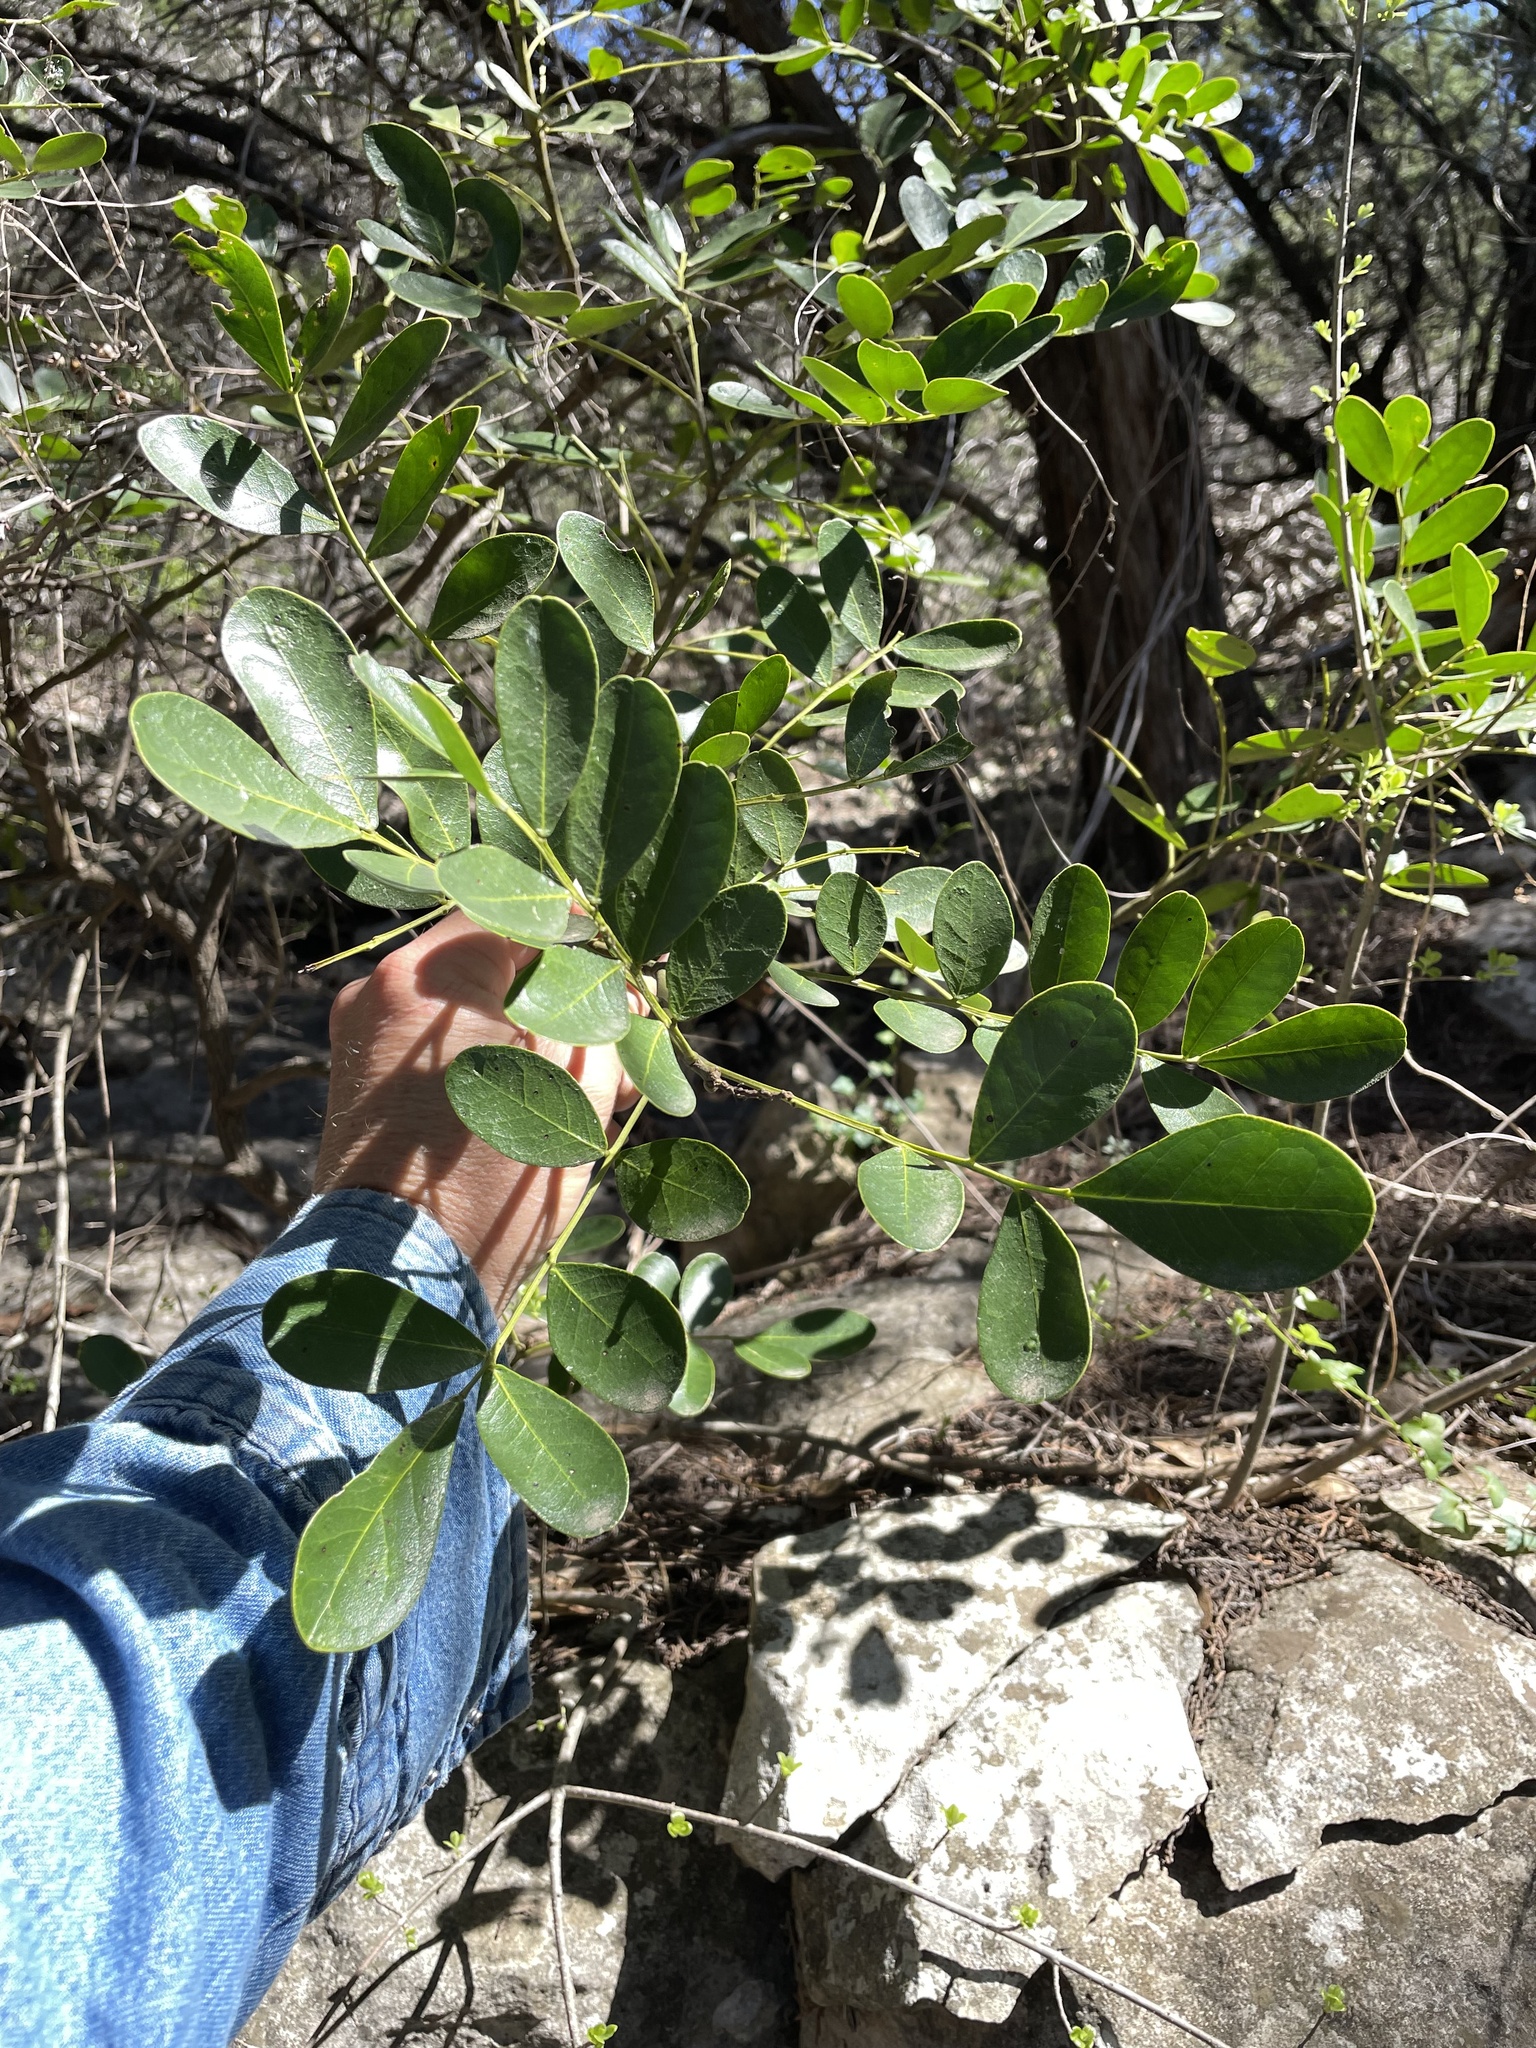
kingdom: Plantae
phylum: Tracheophyta
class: Magnoliopsida
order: Fabales
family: Fabaceae
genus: Dermatophyllum
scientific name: Dermatophyllum secundiflorum
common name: Texas-mountain-laurel
